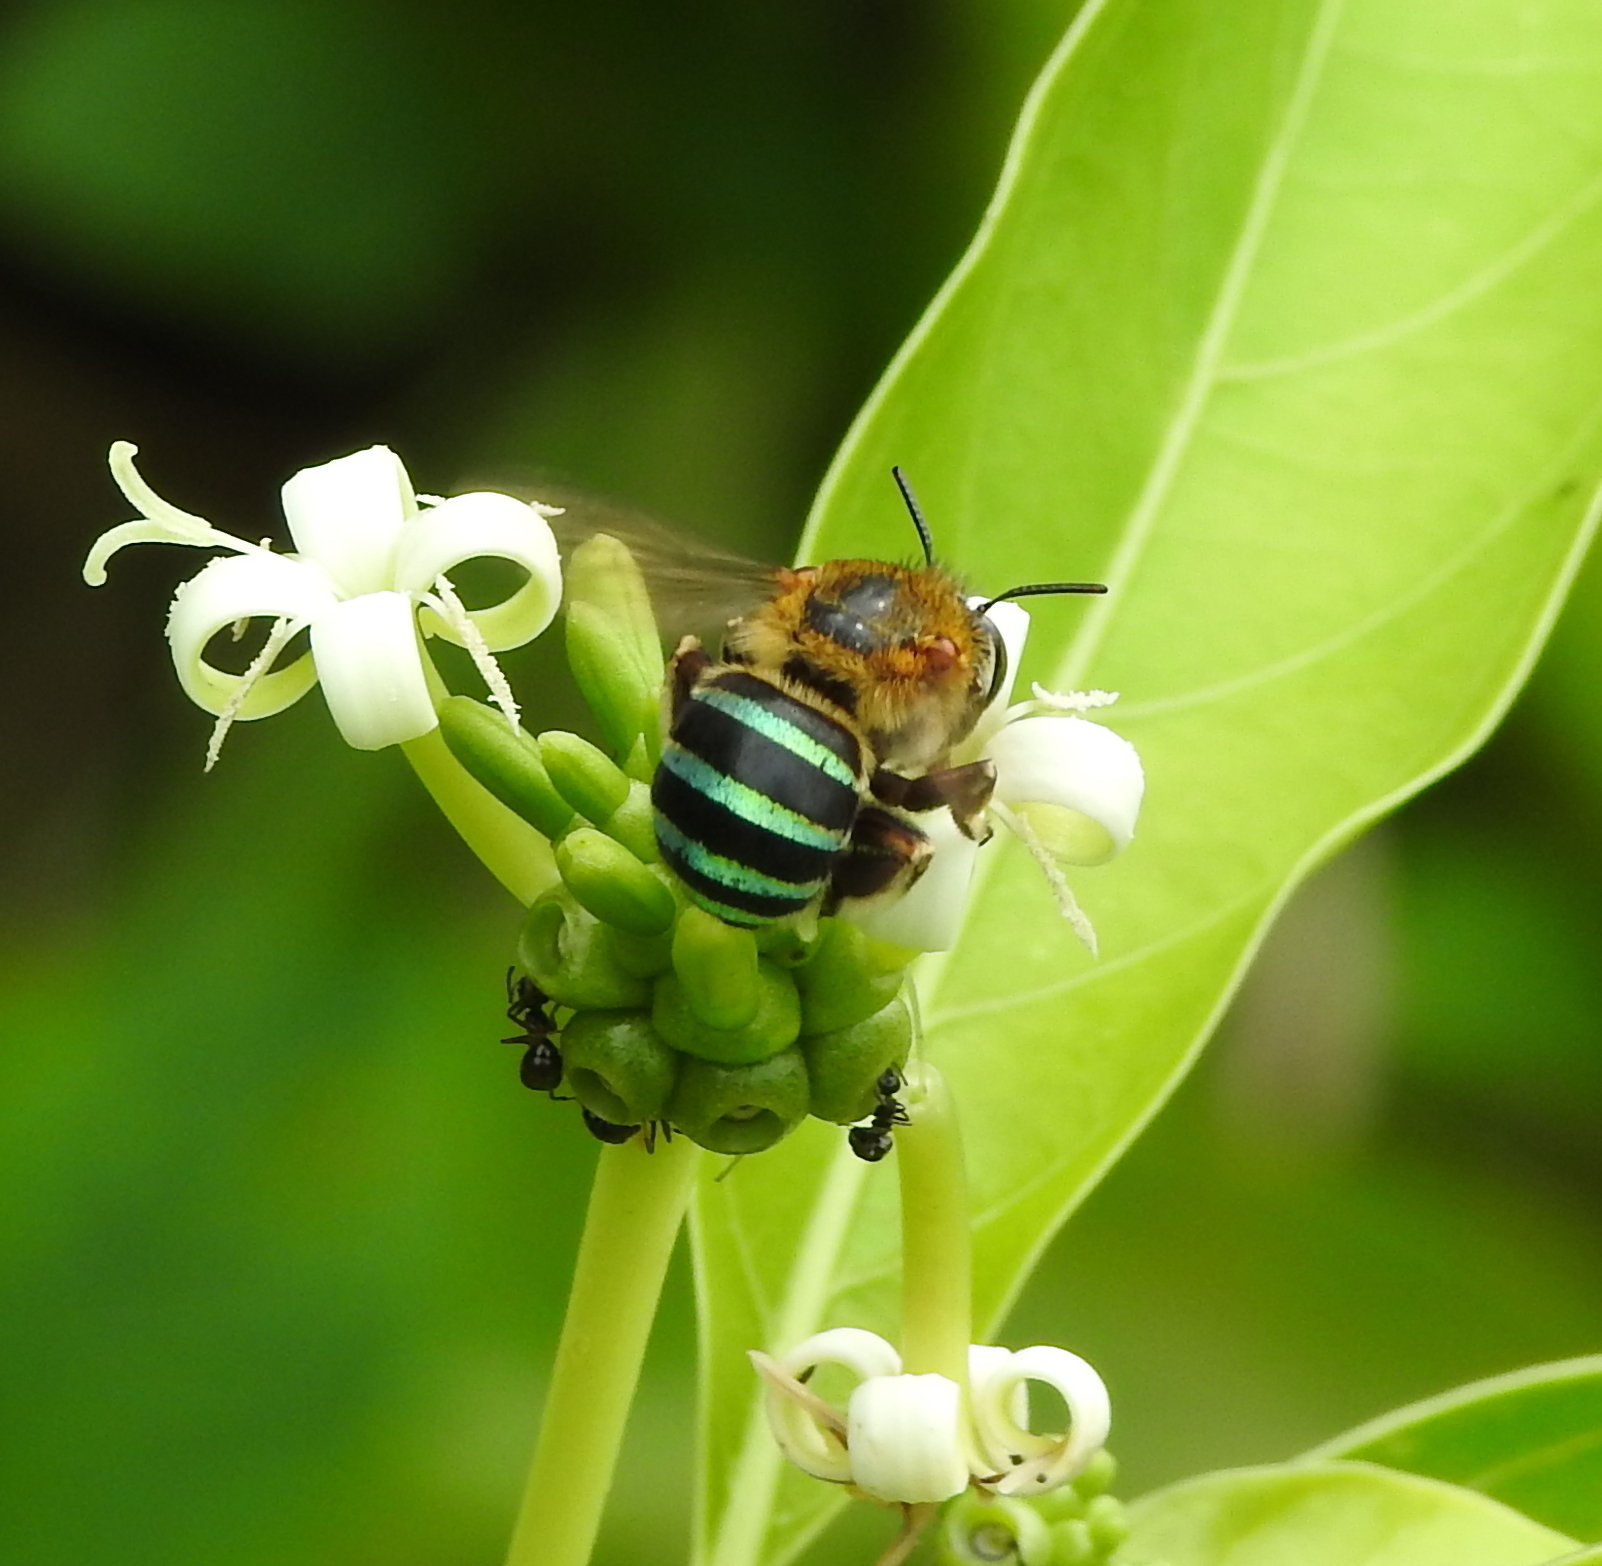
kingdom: Animalia
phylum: Arthropoda
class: Insecta
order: Hymenoptera
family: Apidae
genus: Amegilla
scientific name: Amegilla andrewsi
